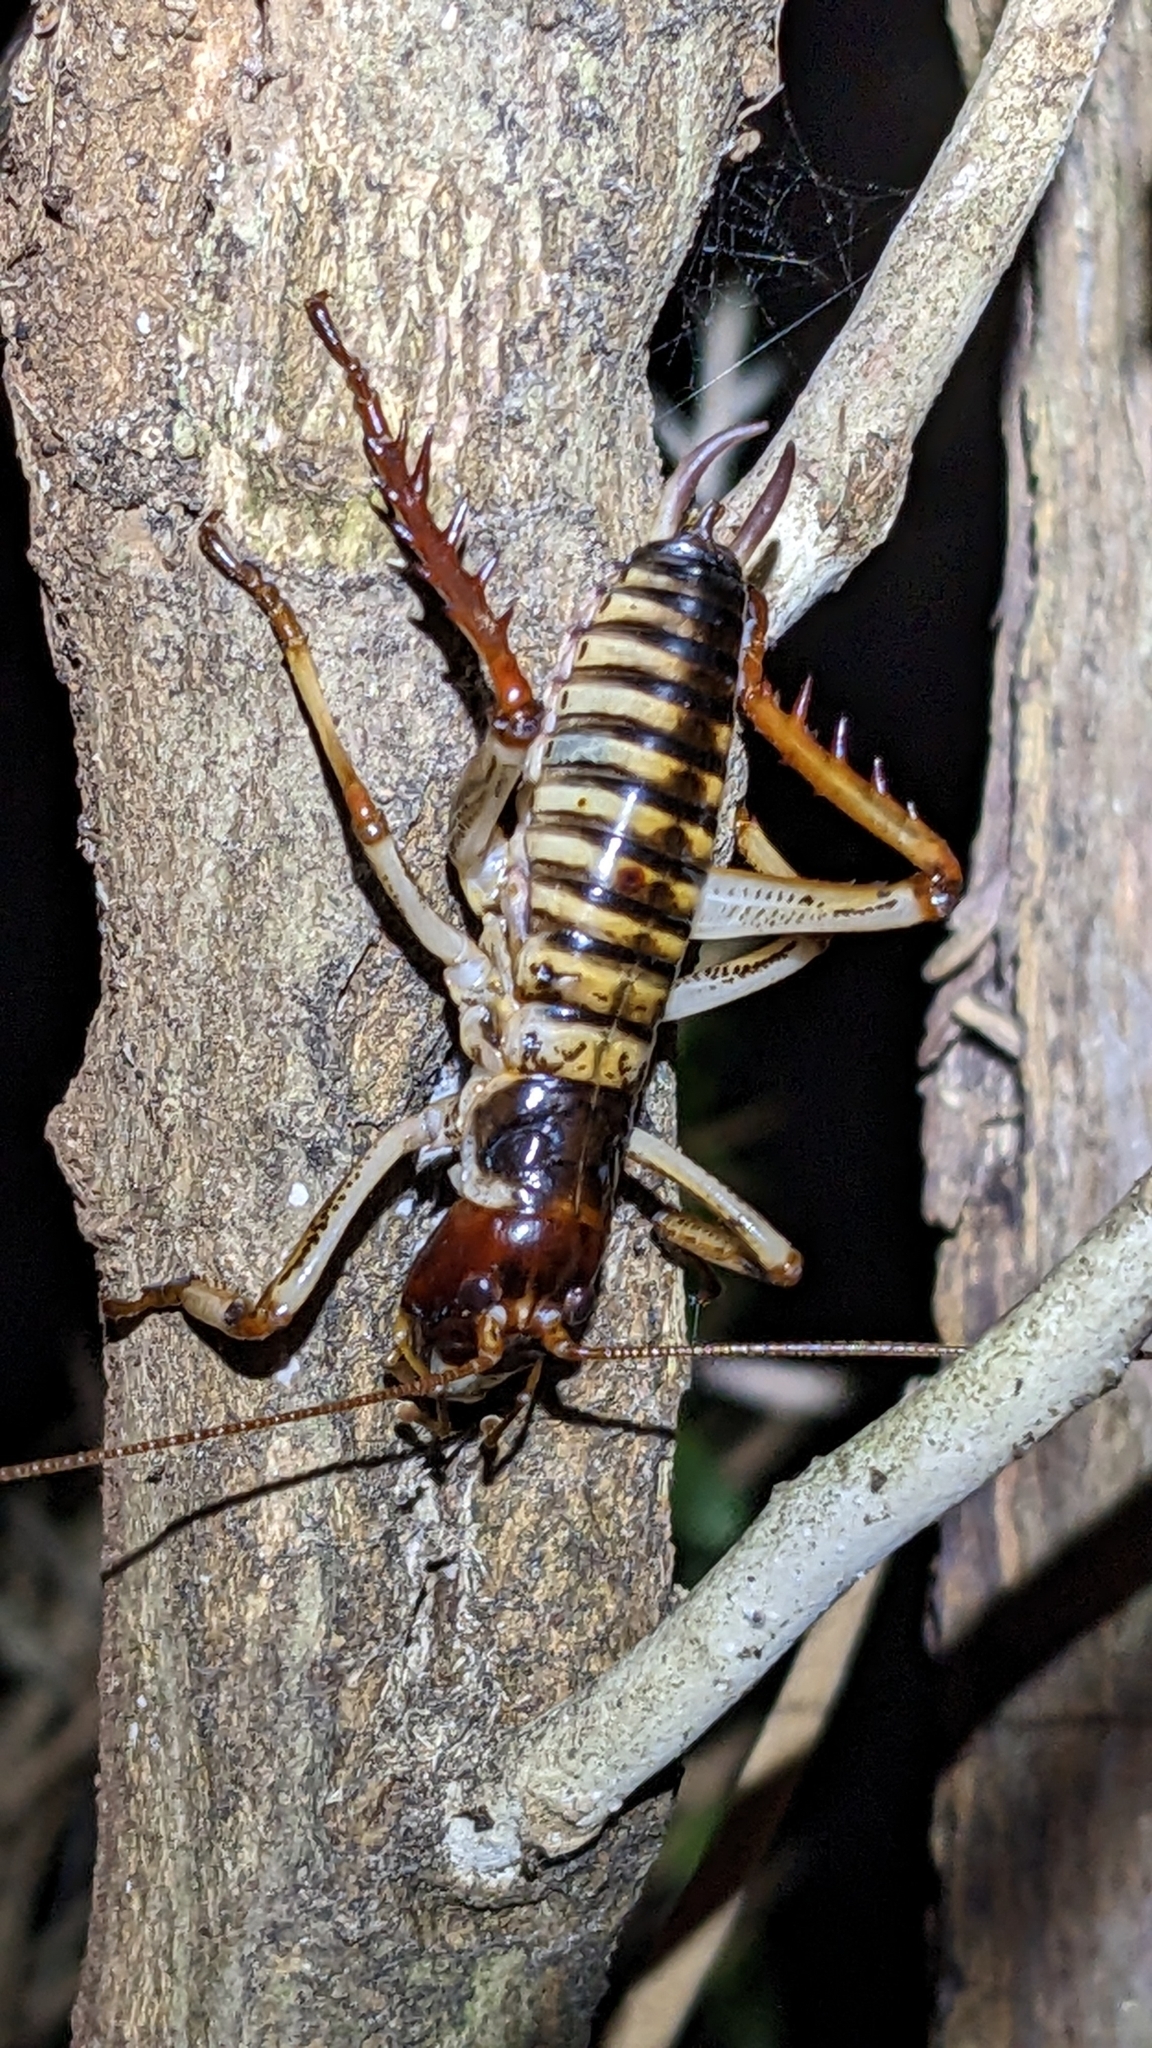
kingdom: Animalia
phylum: Arthropoda
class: Insecta
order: Orthoptera
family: Anostostomatidae
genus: Hemideina
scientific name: Hemideina crassidens
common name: Wellington tree weta
